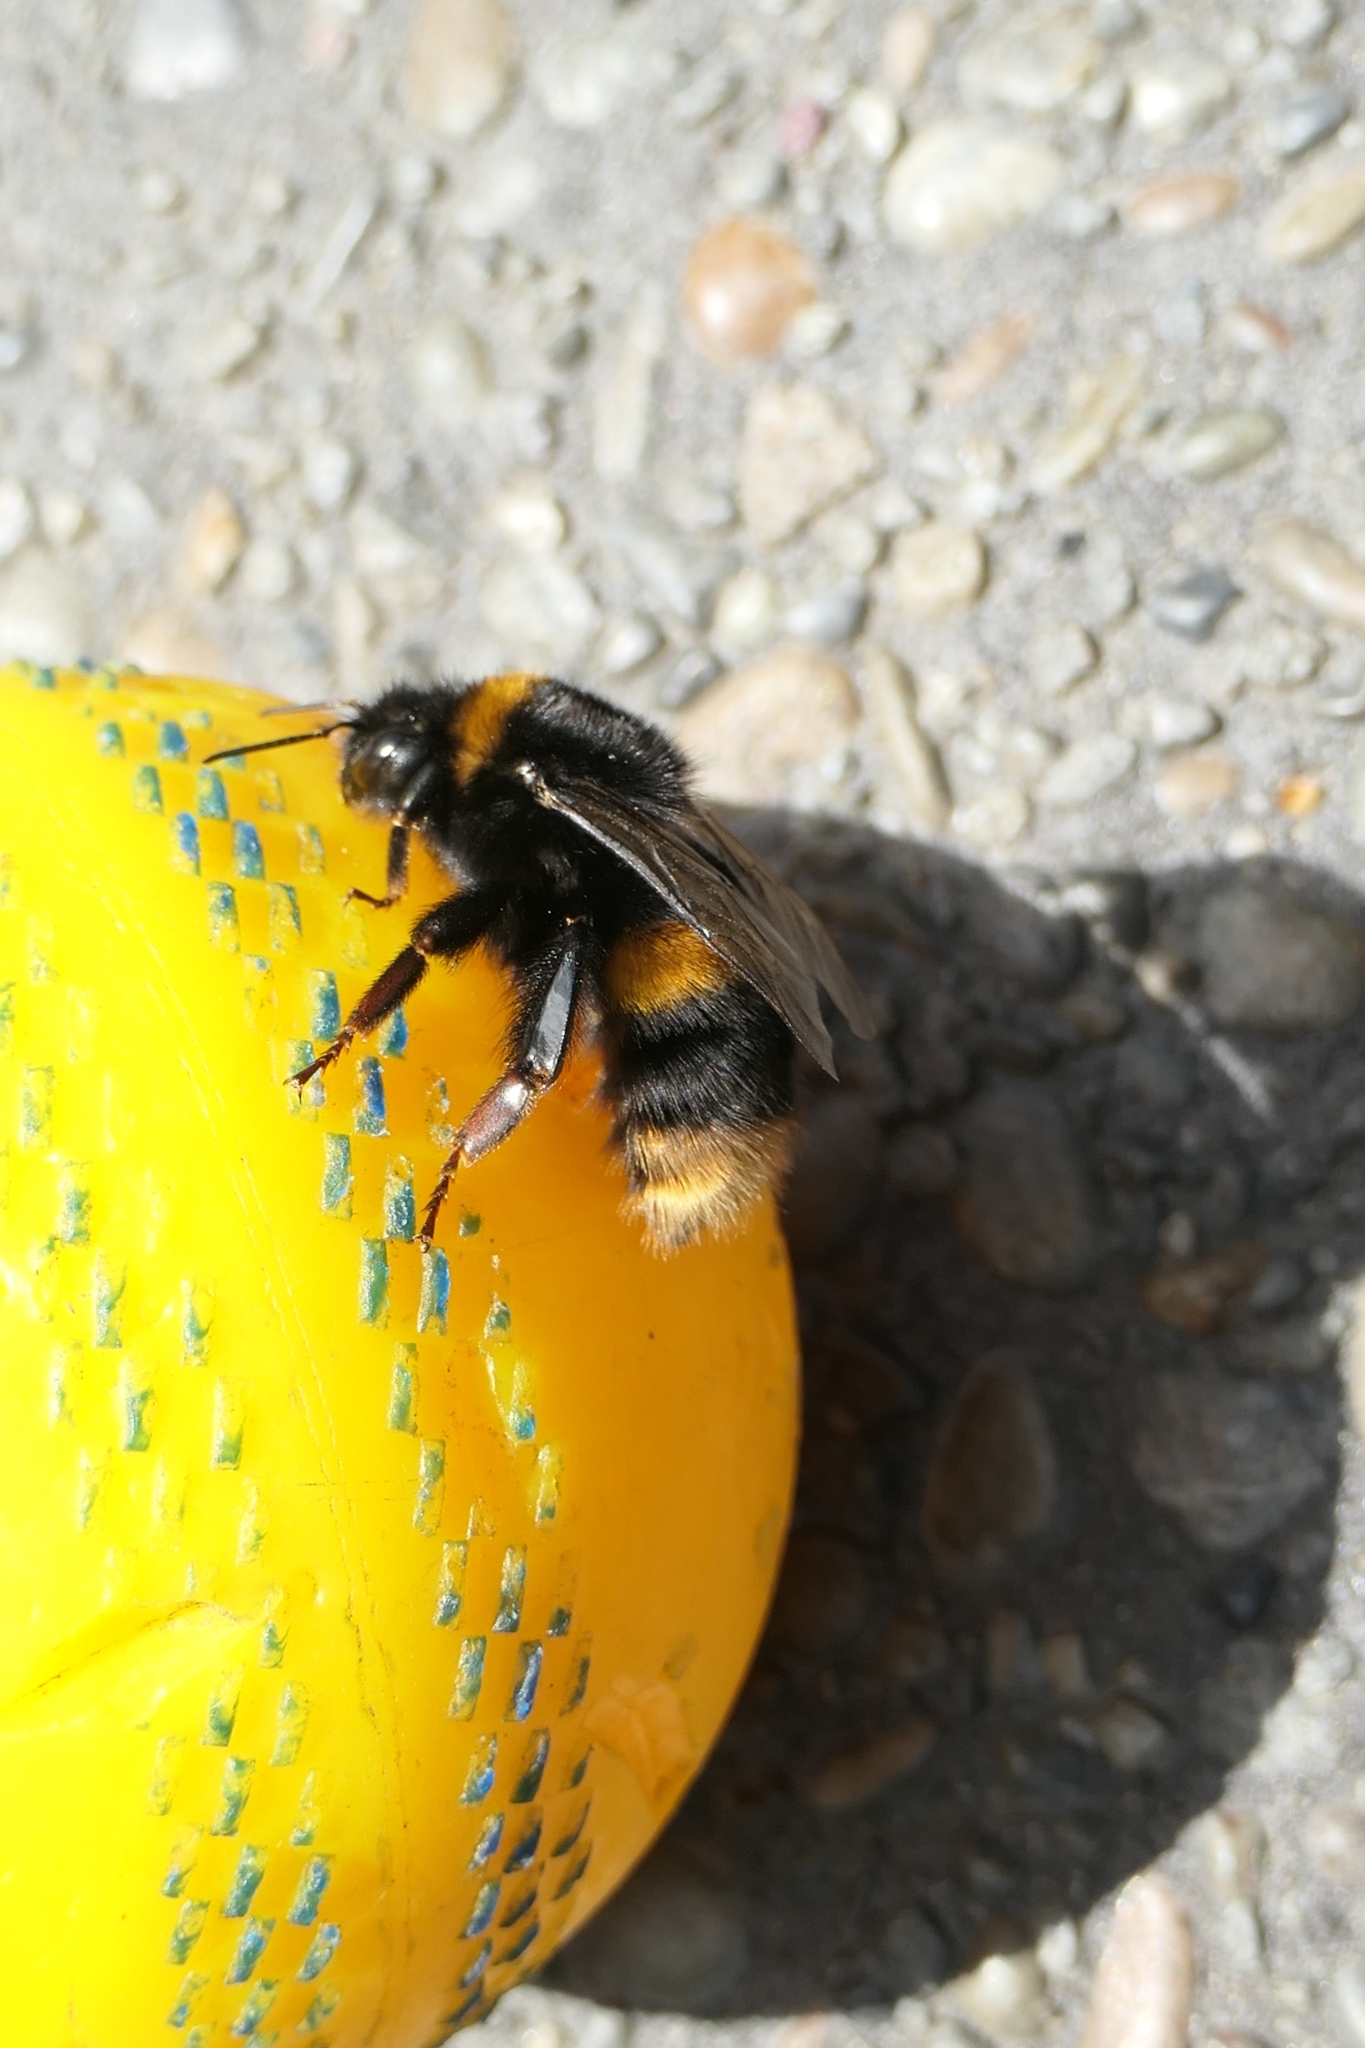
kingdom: Animalia
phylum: Arthropoda
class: Insecta
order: Hymenoptera
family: Apidae
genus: Bombus
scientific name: Bombus terrestris
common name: Buff-tailed bumblebee
